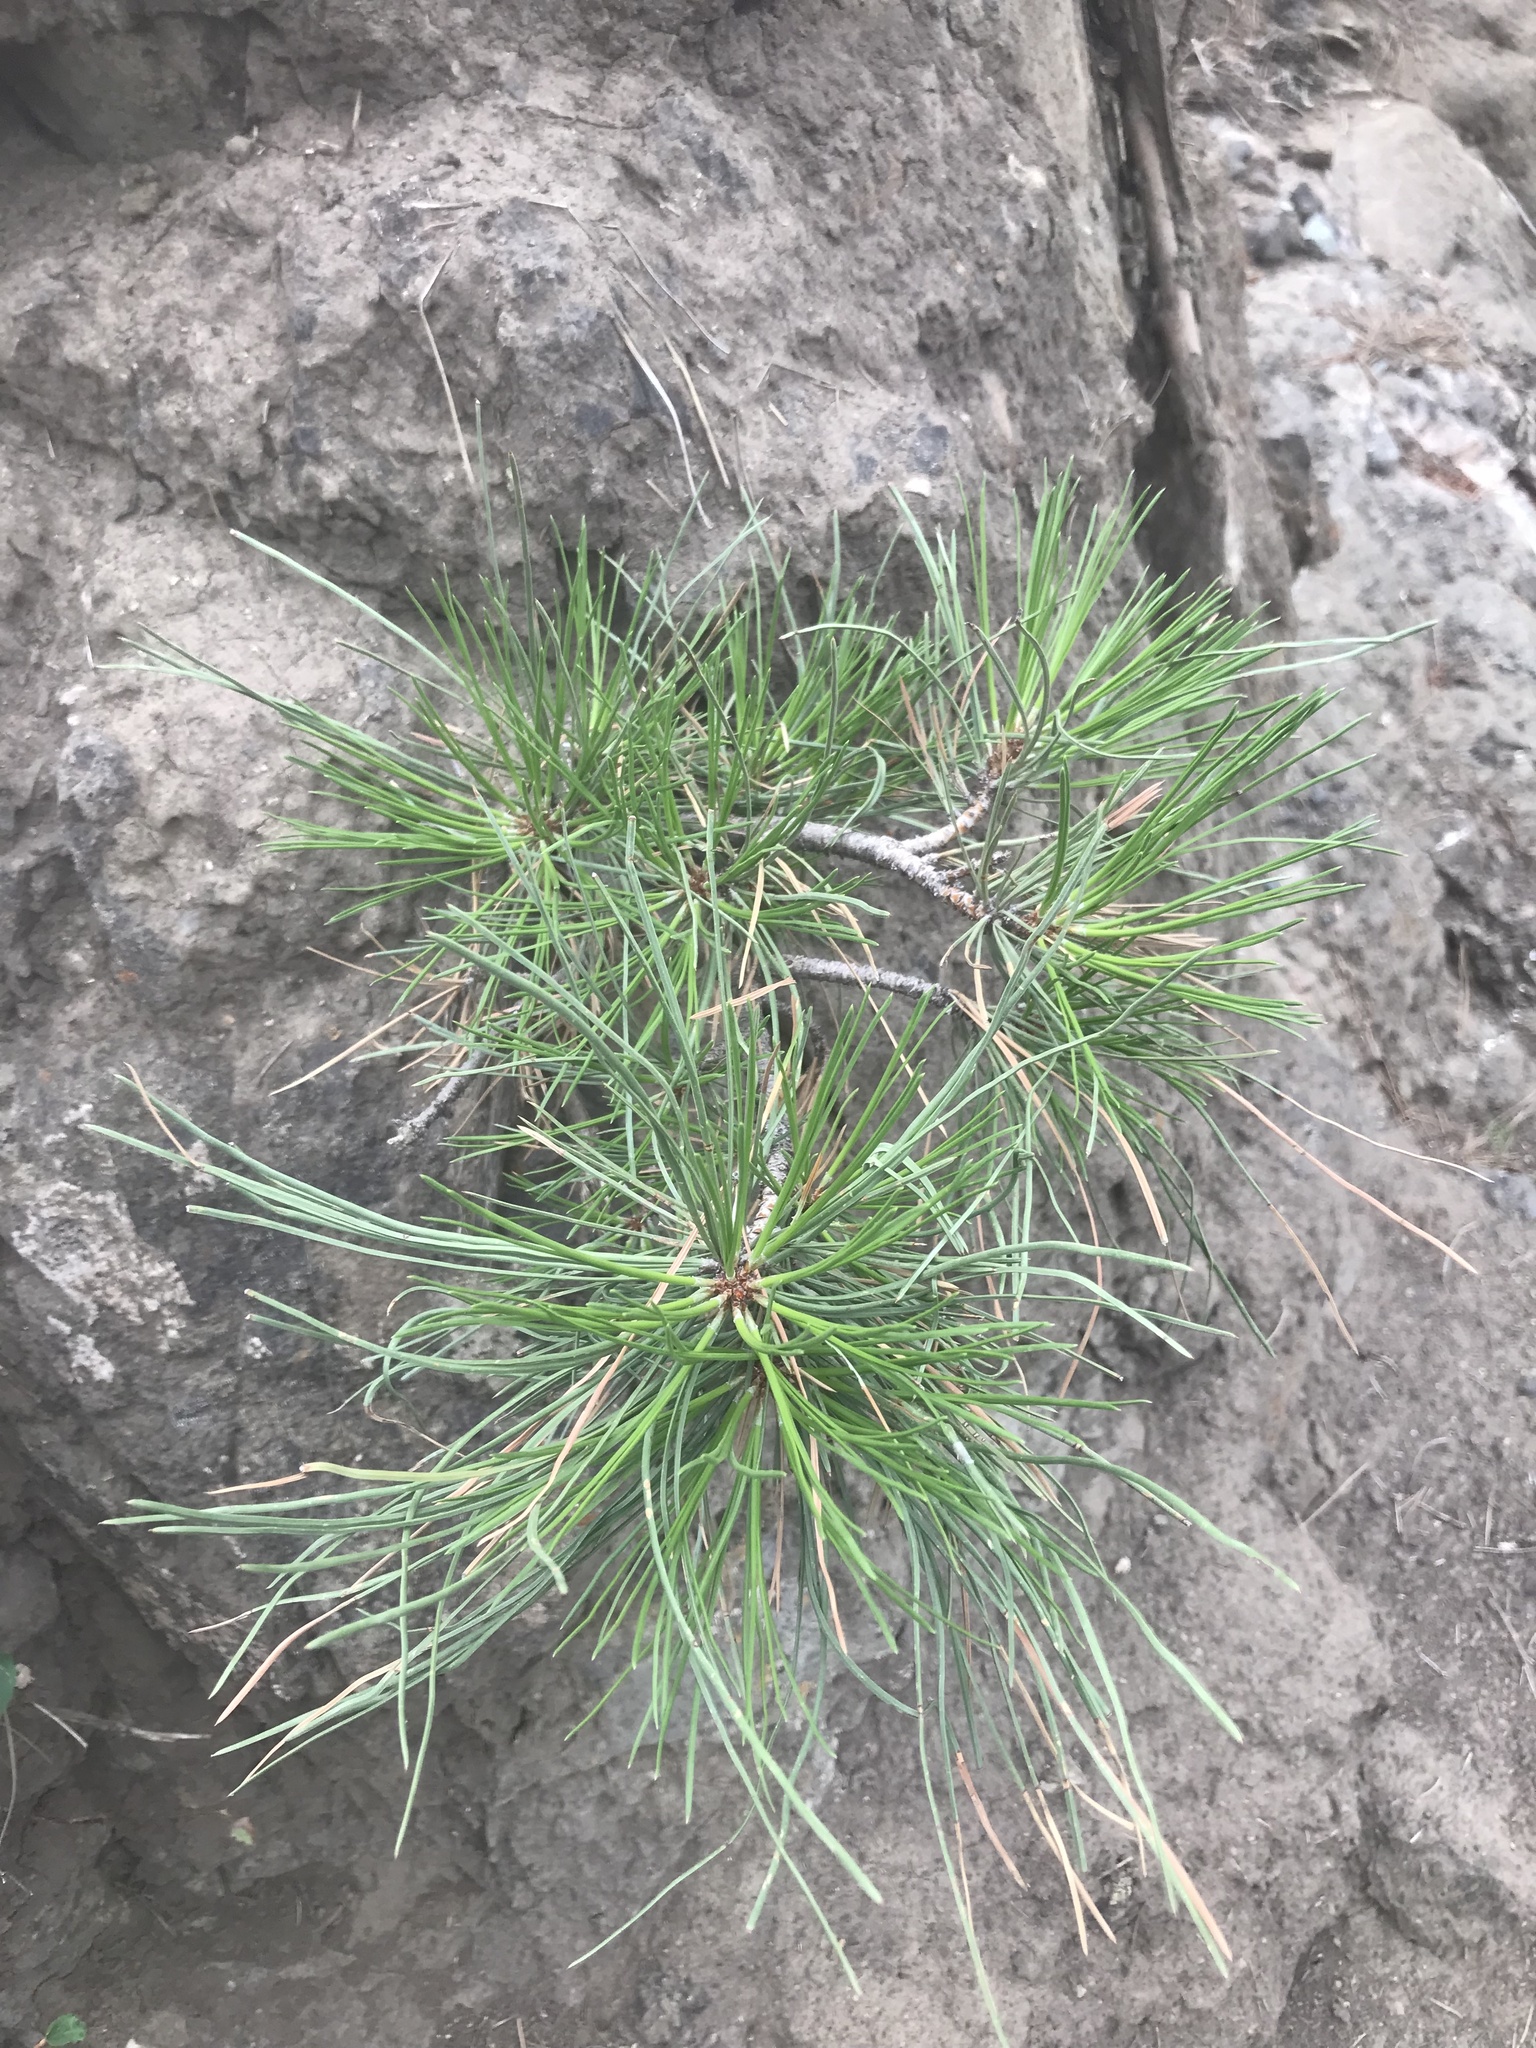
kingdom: Plantae
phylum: Tracheophyta
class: Pinopsida
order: Pinales
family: Pinaceae
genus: Pinus
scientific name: Pinus ponderosa
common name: Western yellow-pine
